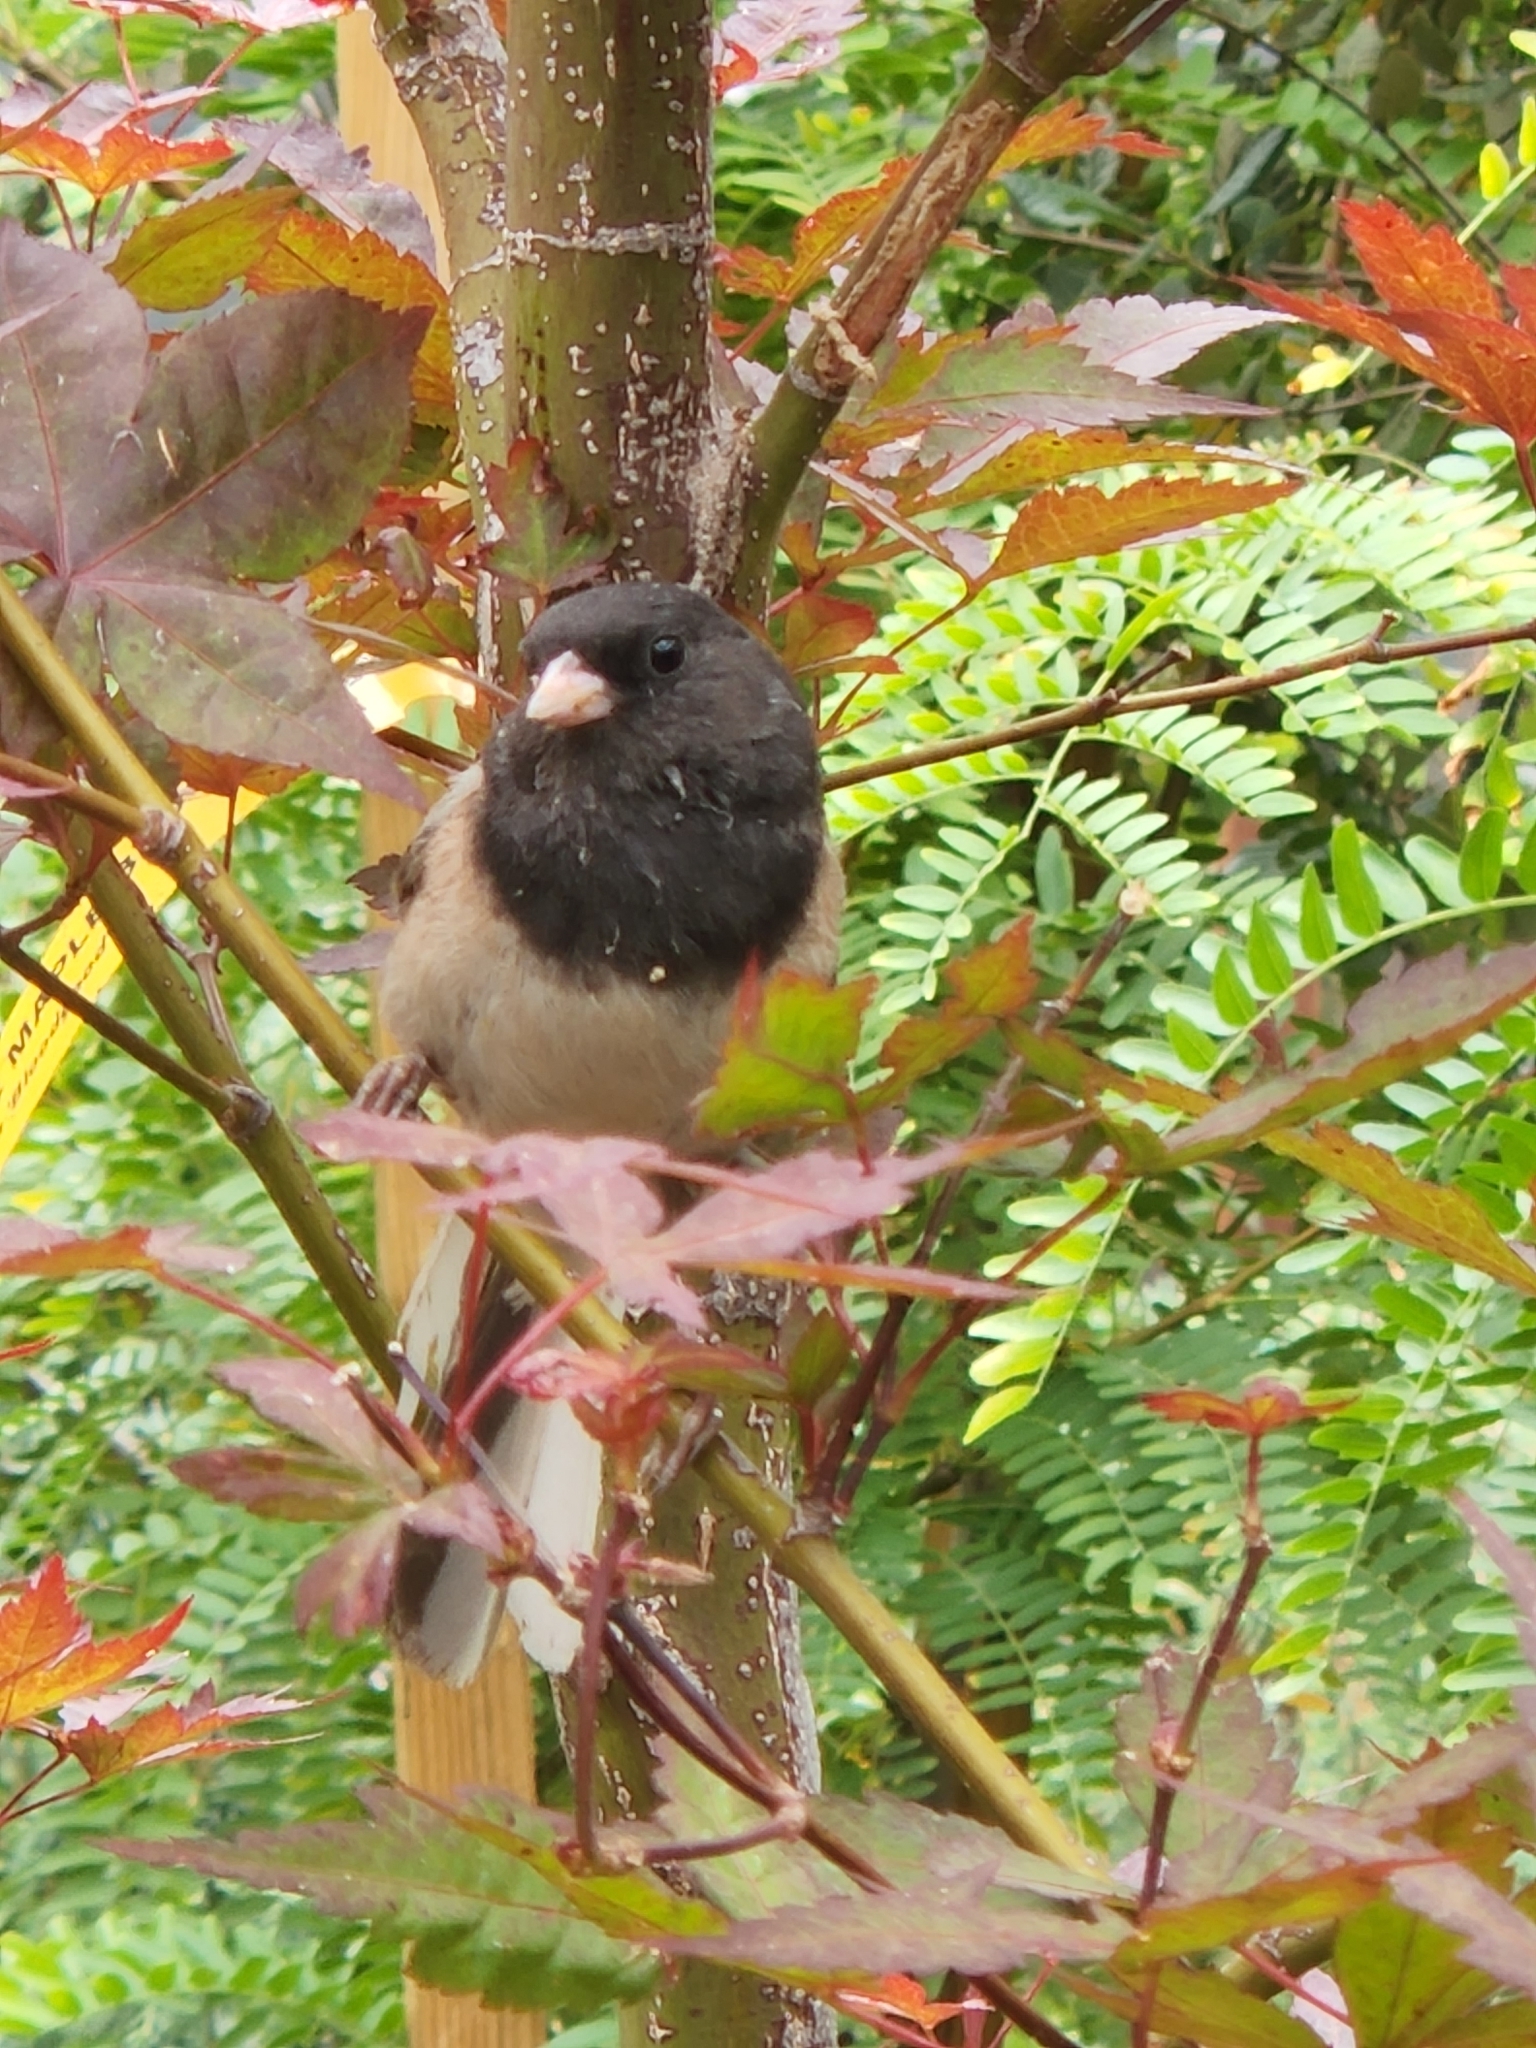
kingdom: Animalia
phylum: Chordata
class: Aves
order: Passeriformes
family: Passerellidae
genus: Junco
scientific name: Junco hyemalis
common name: Dark-eyed junco
